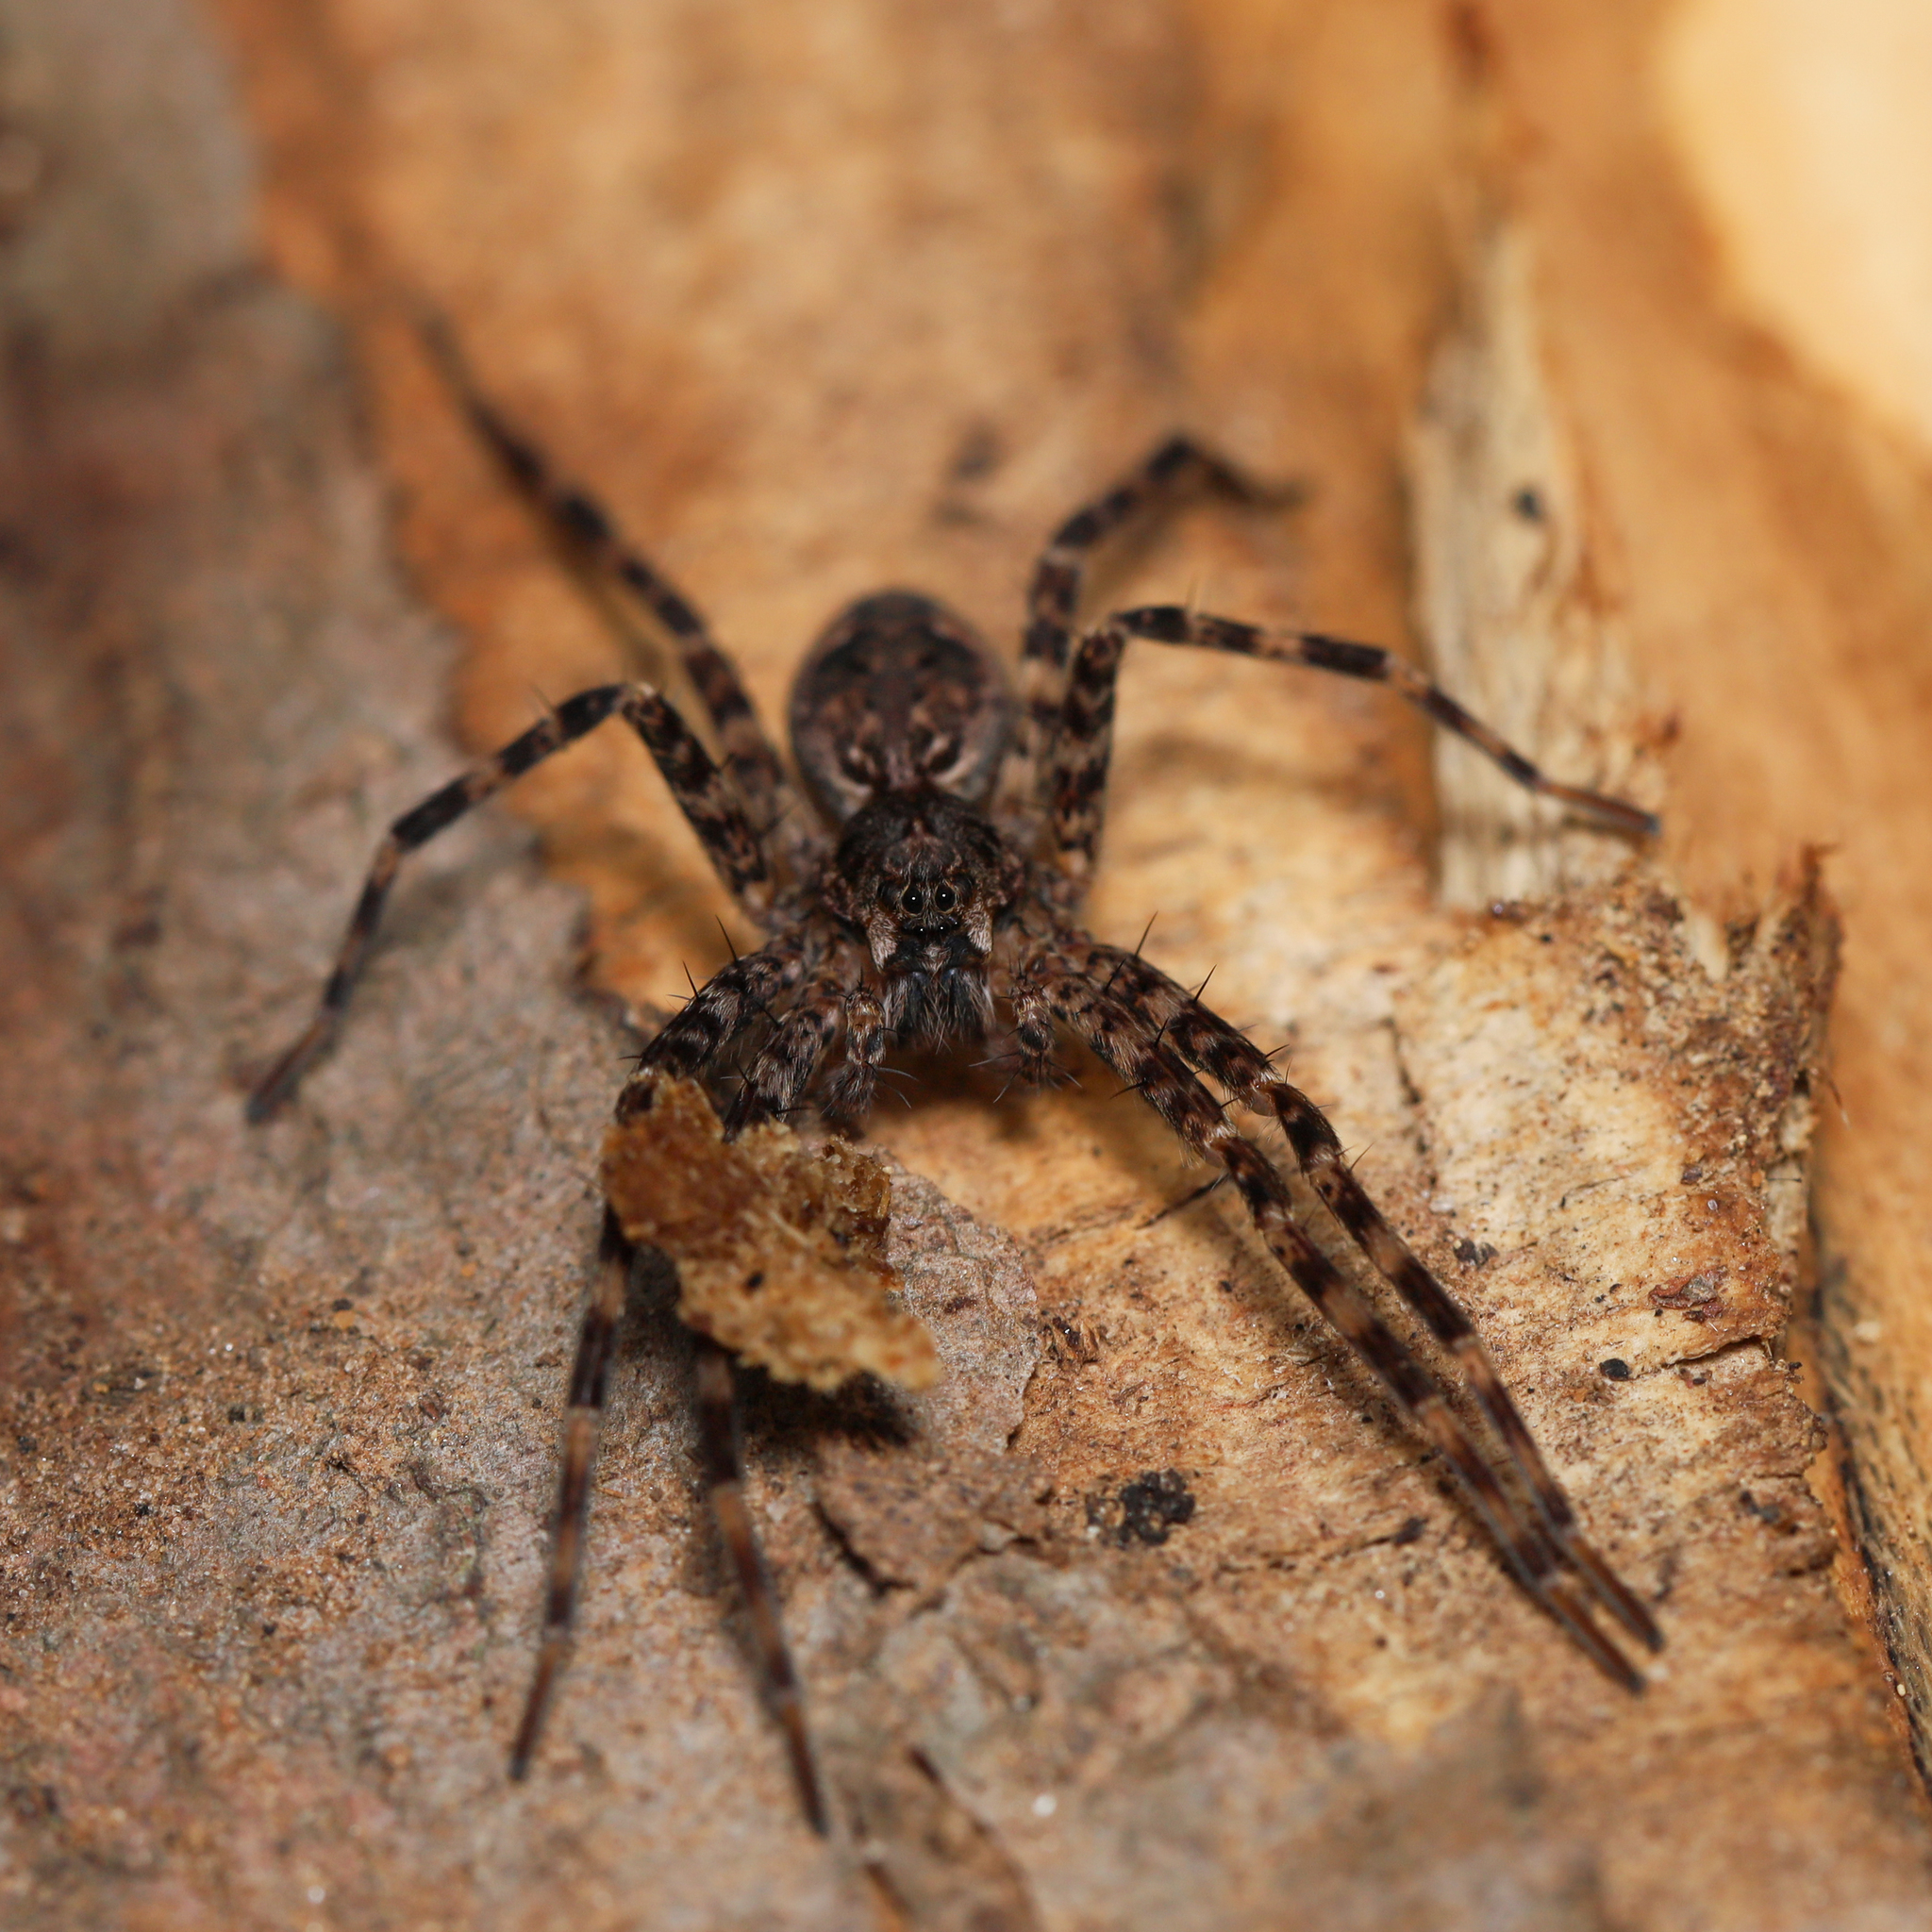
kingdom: Animalia
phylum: Arthropoda
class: Arachnida
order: Araneae
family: Pisauridae
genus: Dolomedes
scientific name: Dolomedes tenebrosus
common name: Dark fishing spider
